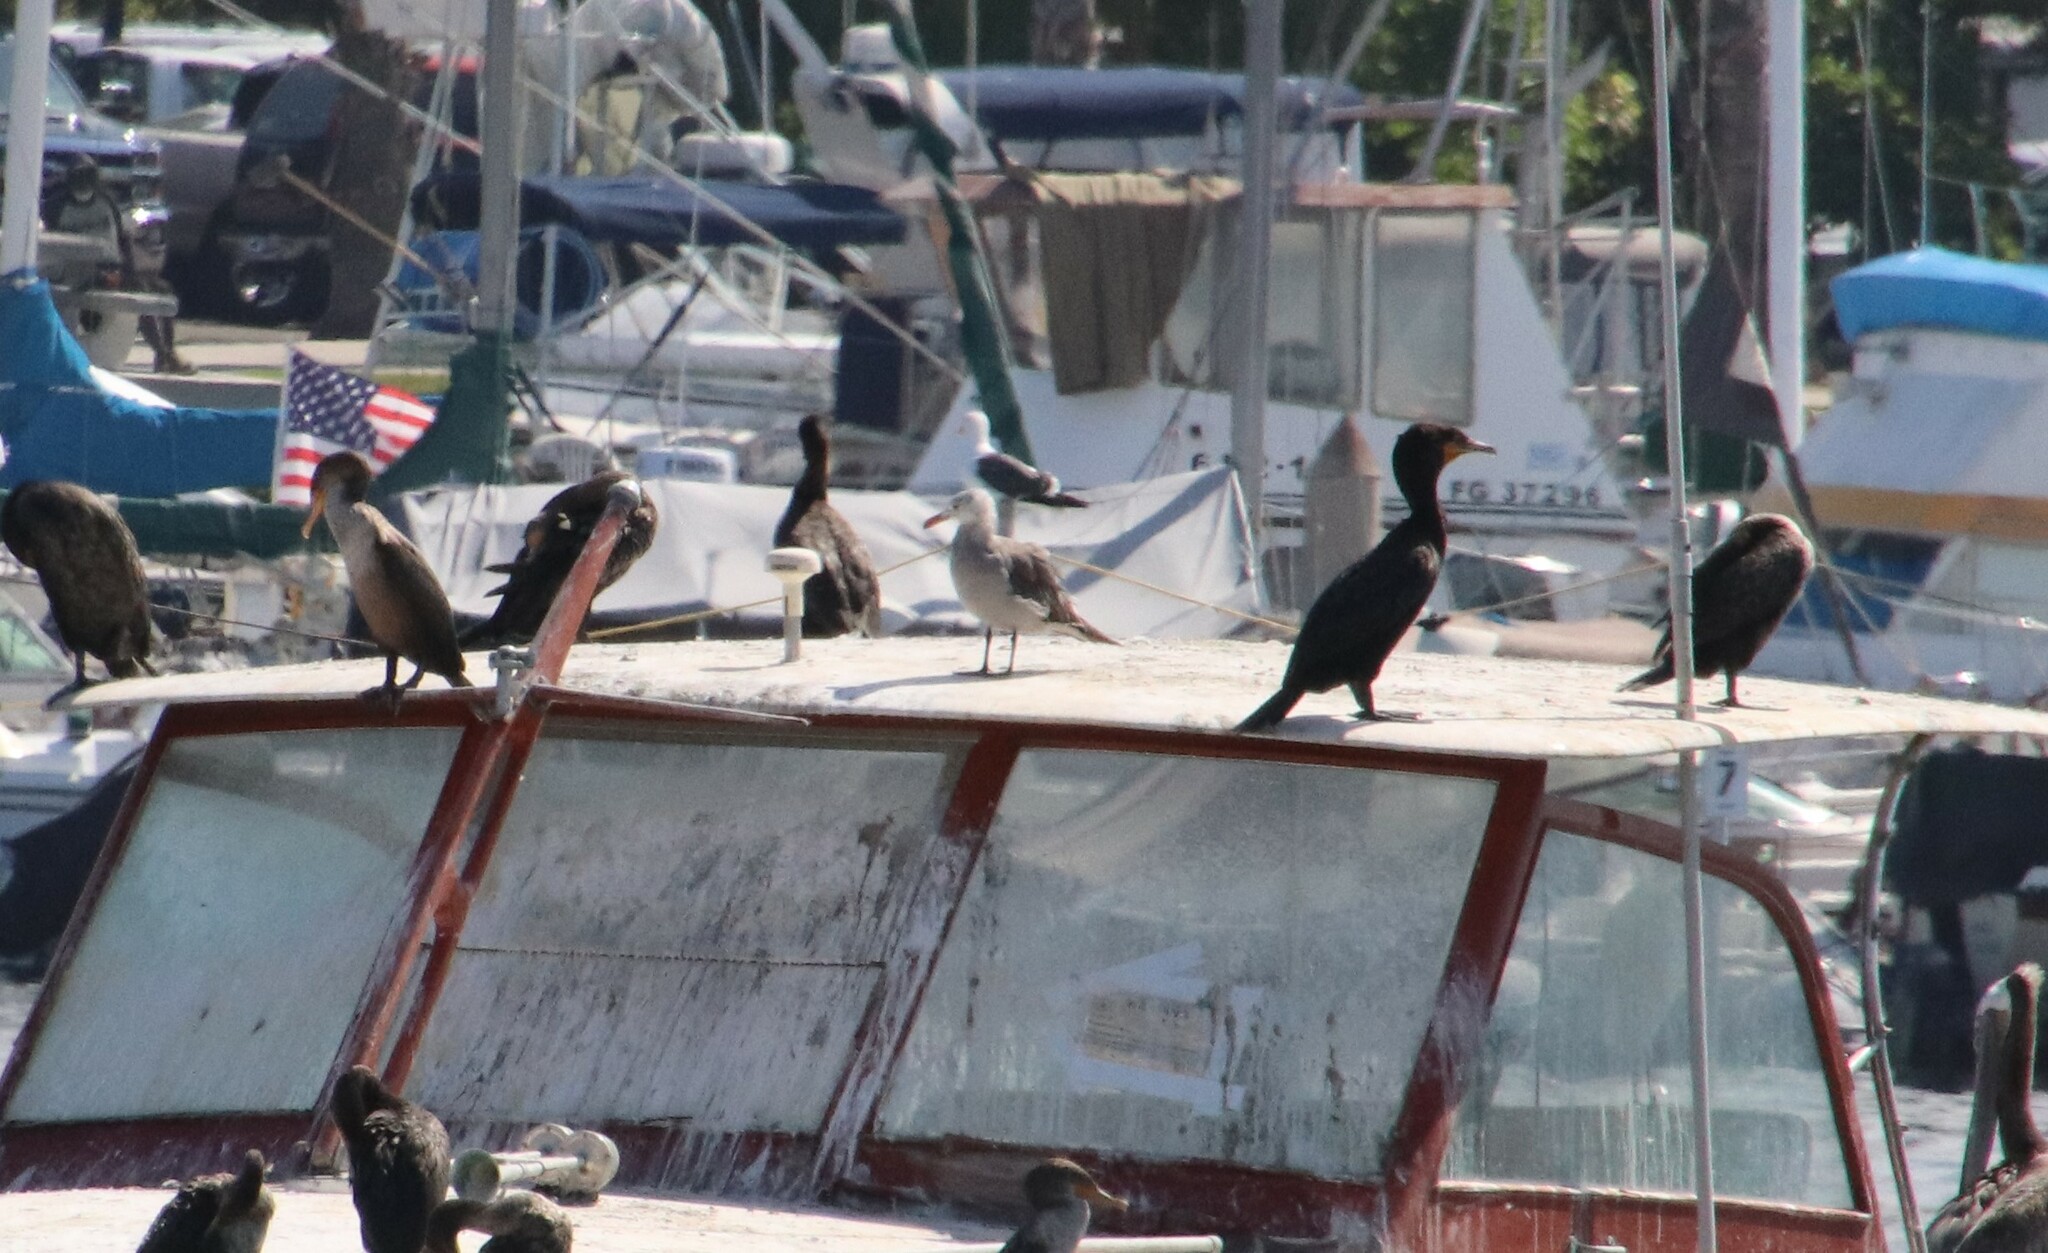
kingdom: Animalia
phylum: Chordata
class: Aves
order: Charadriiformes
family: Laridae
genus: Larus
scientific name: Larus heermanni
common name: Heermann's gull
